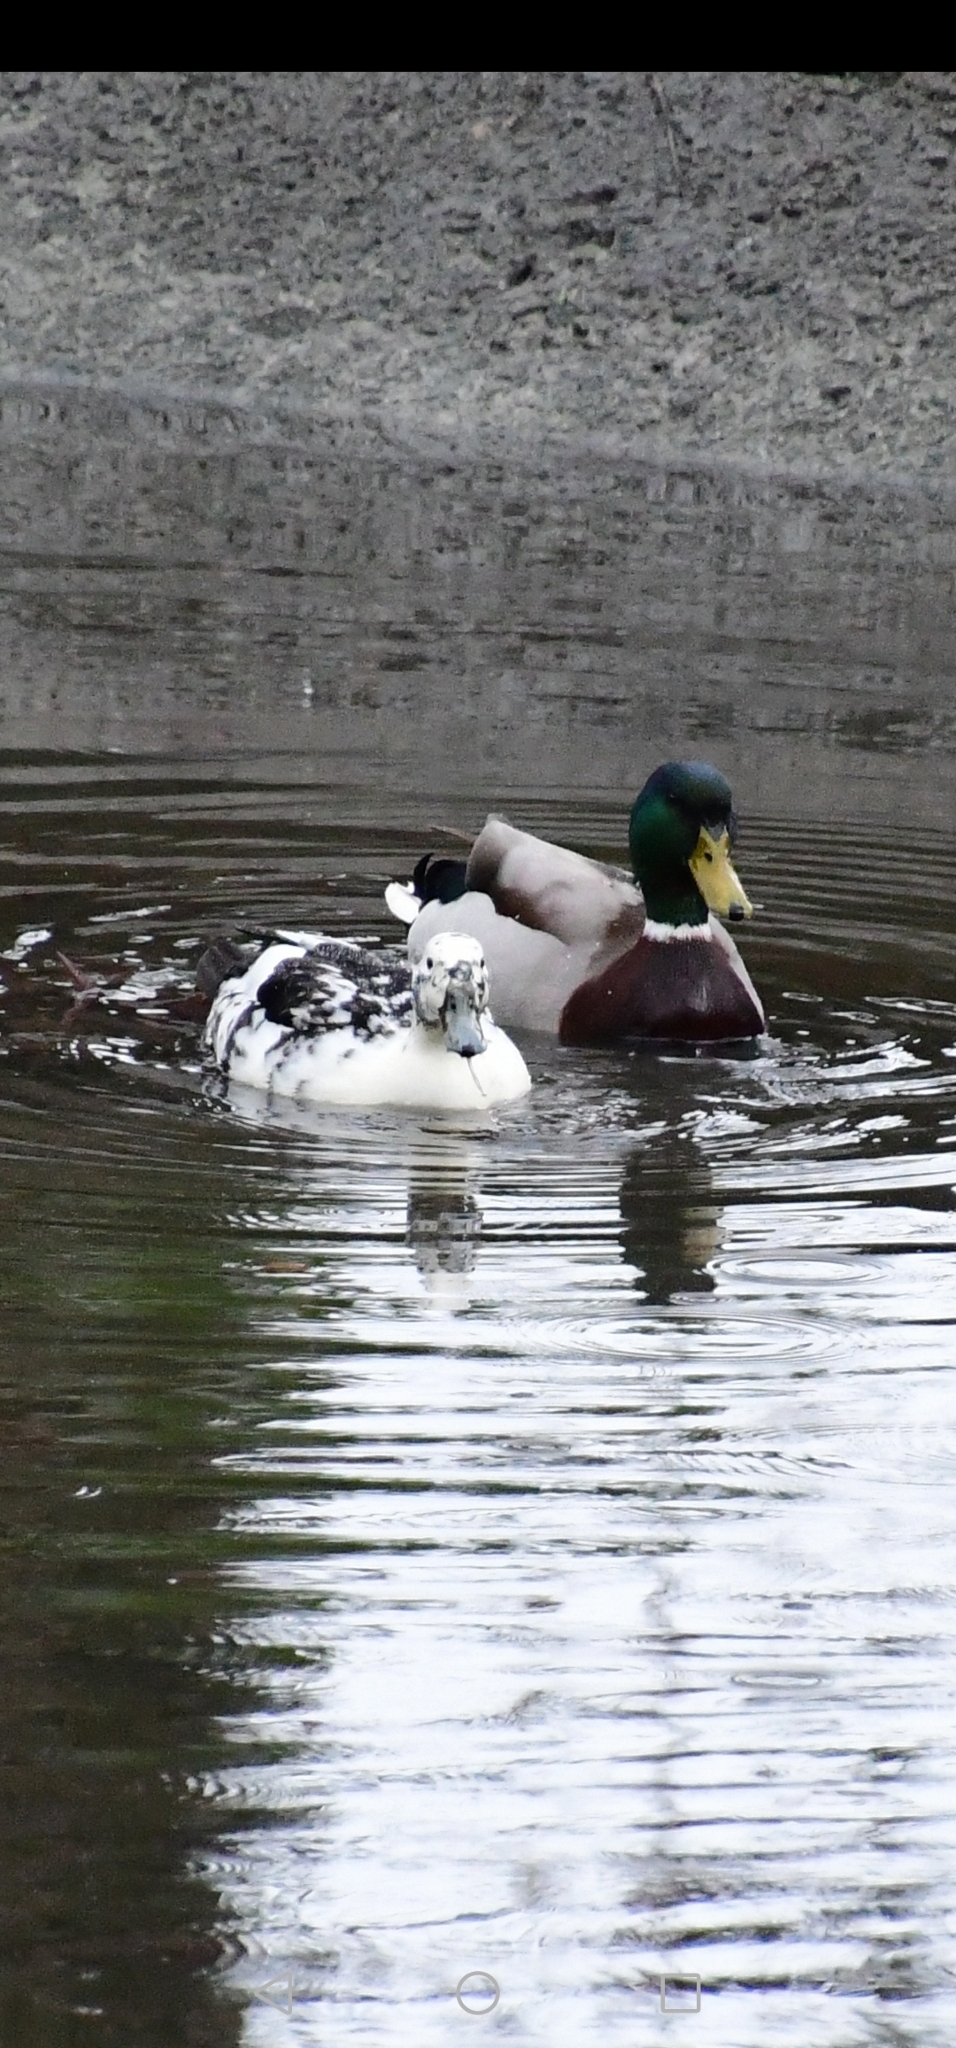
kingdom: Animalia
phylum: Chordata
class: Aves
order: Anseriformes
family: Anatidae
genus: Anas
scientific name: Anas platyrhynchos
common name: Mallard
